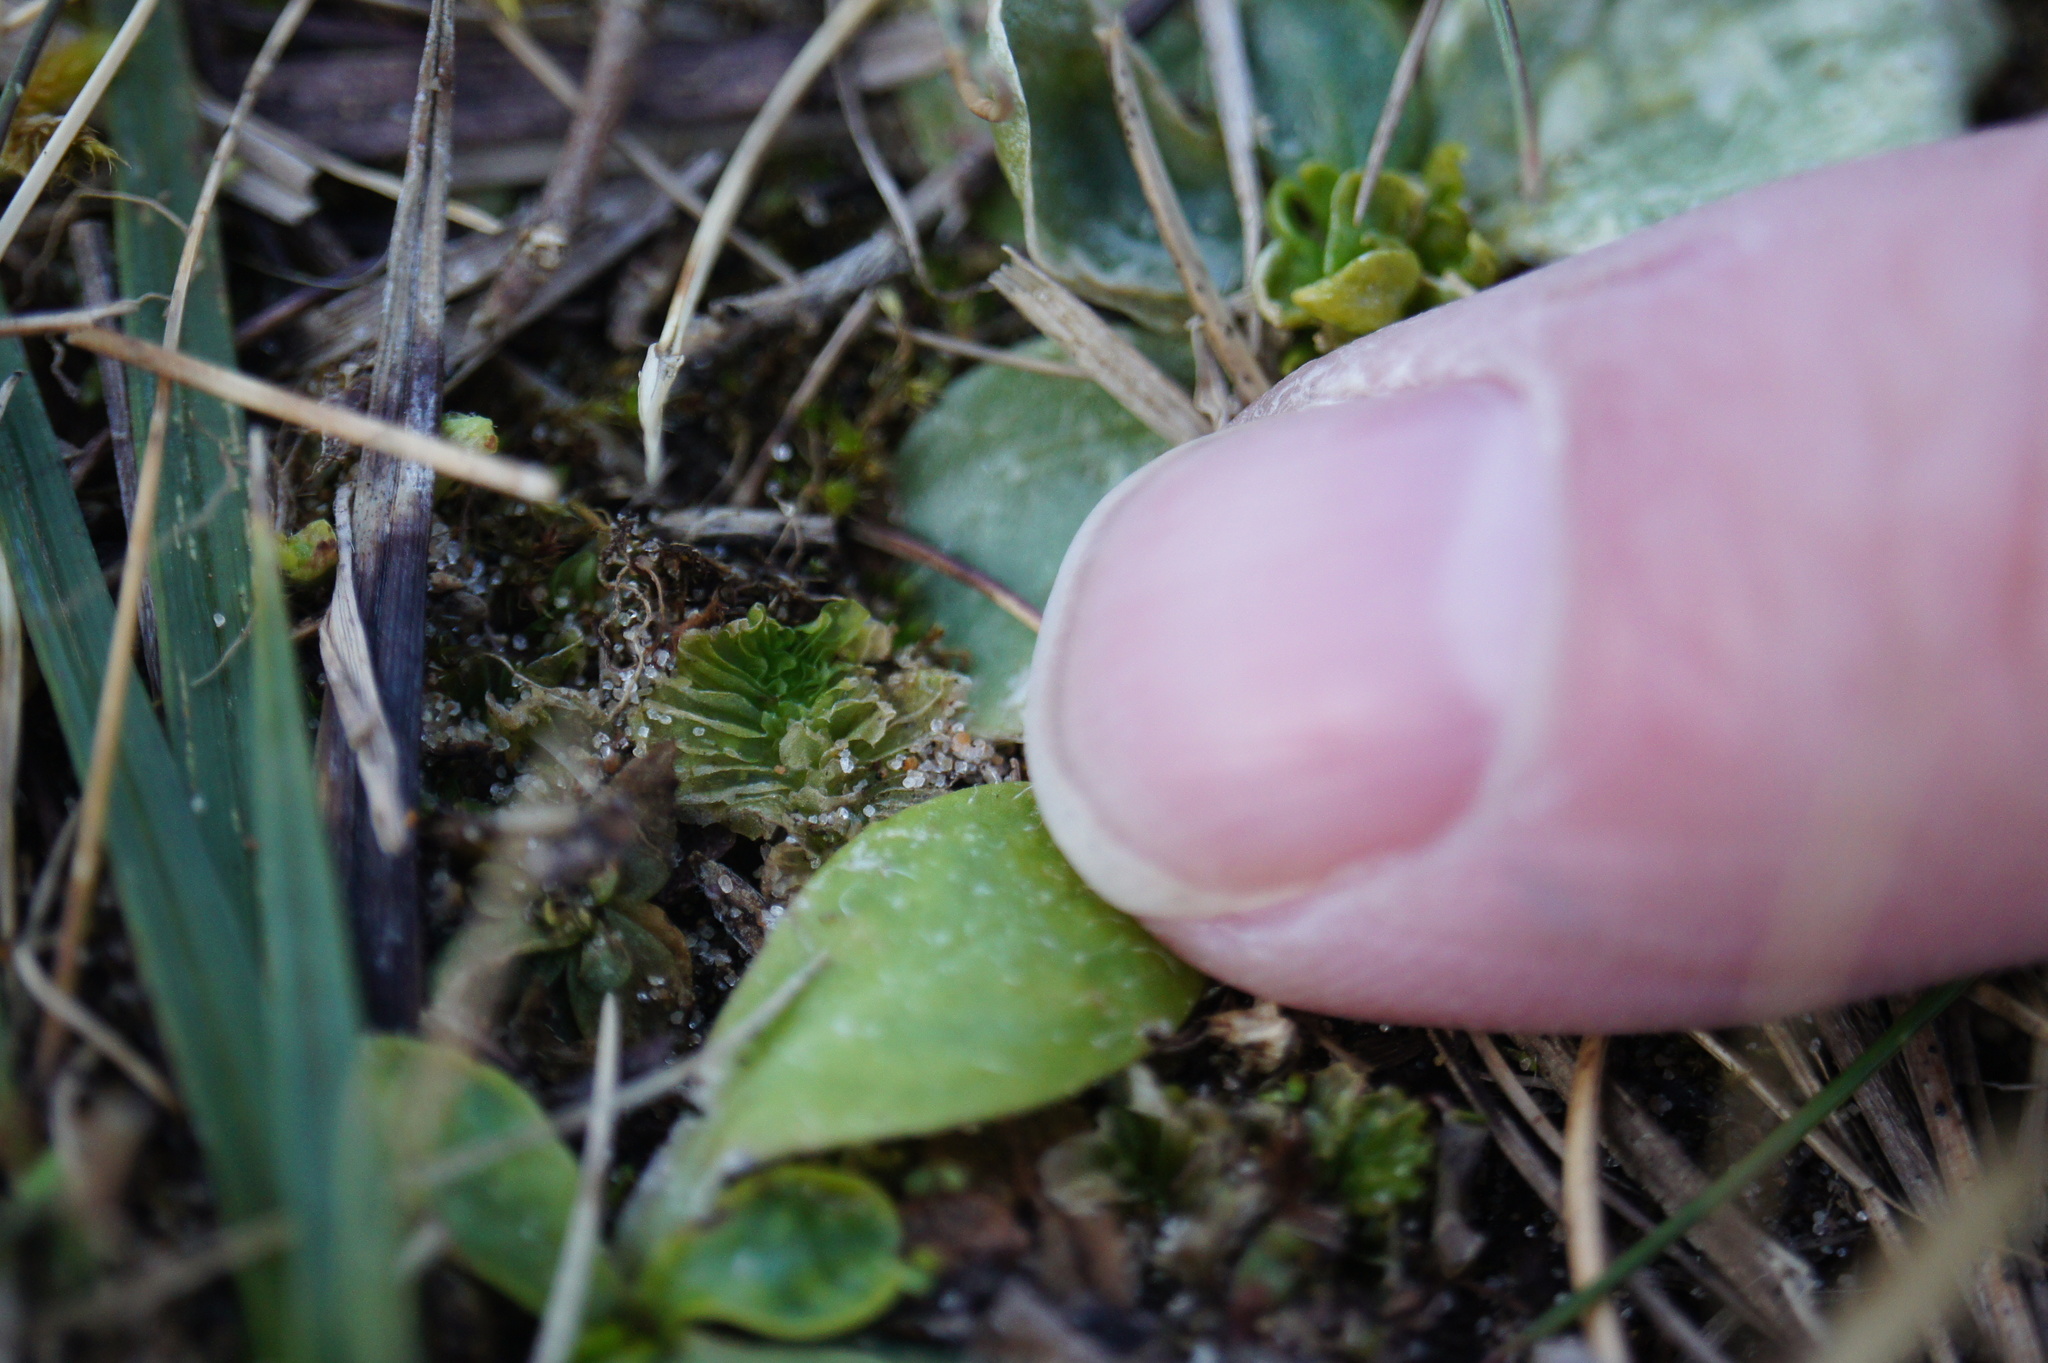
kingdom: Plantae
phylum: Marchantiophyta
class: Jungermanniopsida
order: Fossombroniales
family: Petalophyllaceae
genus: Petalophyllum
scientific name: Petalophyllum ralfsii
